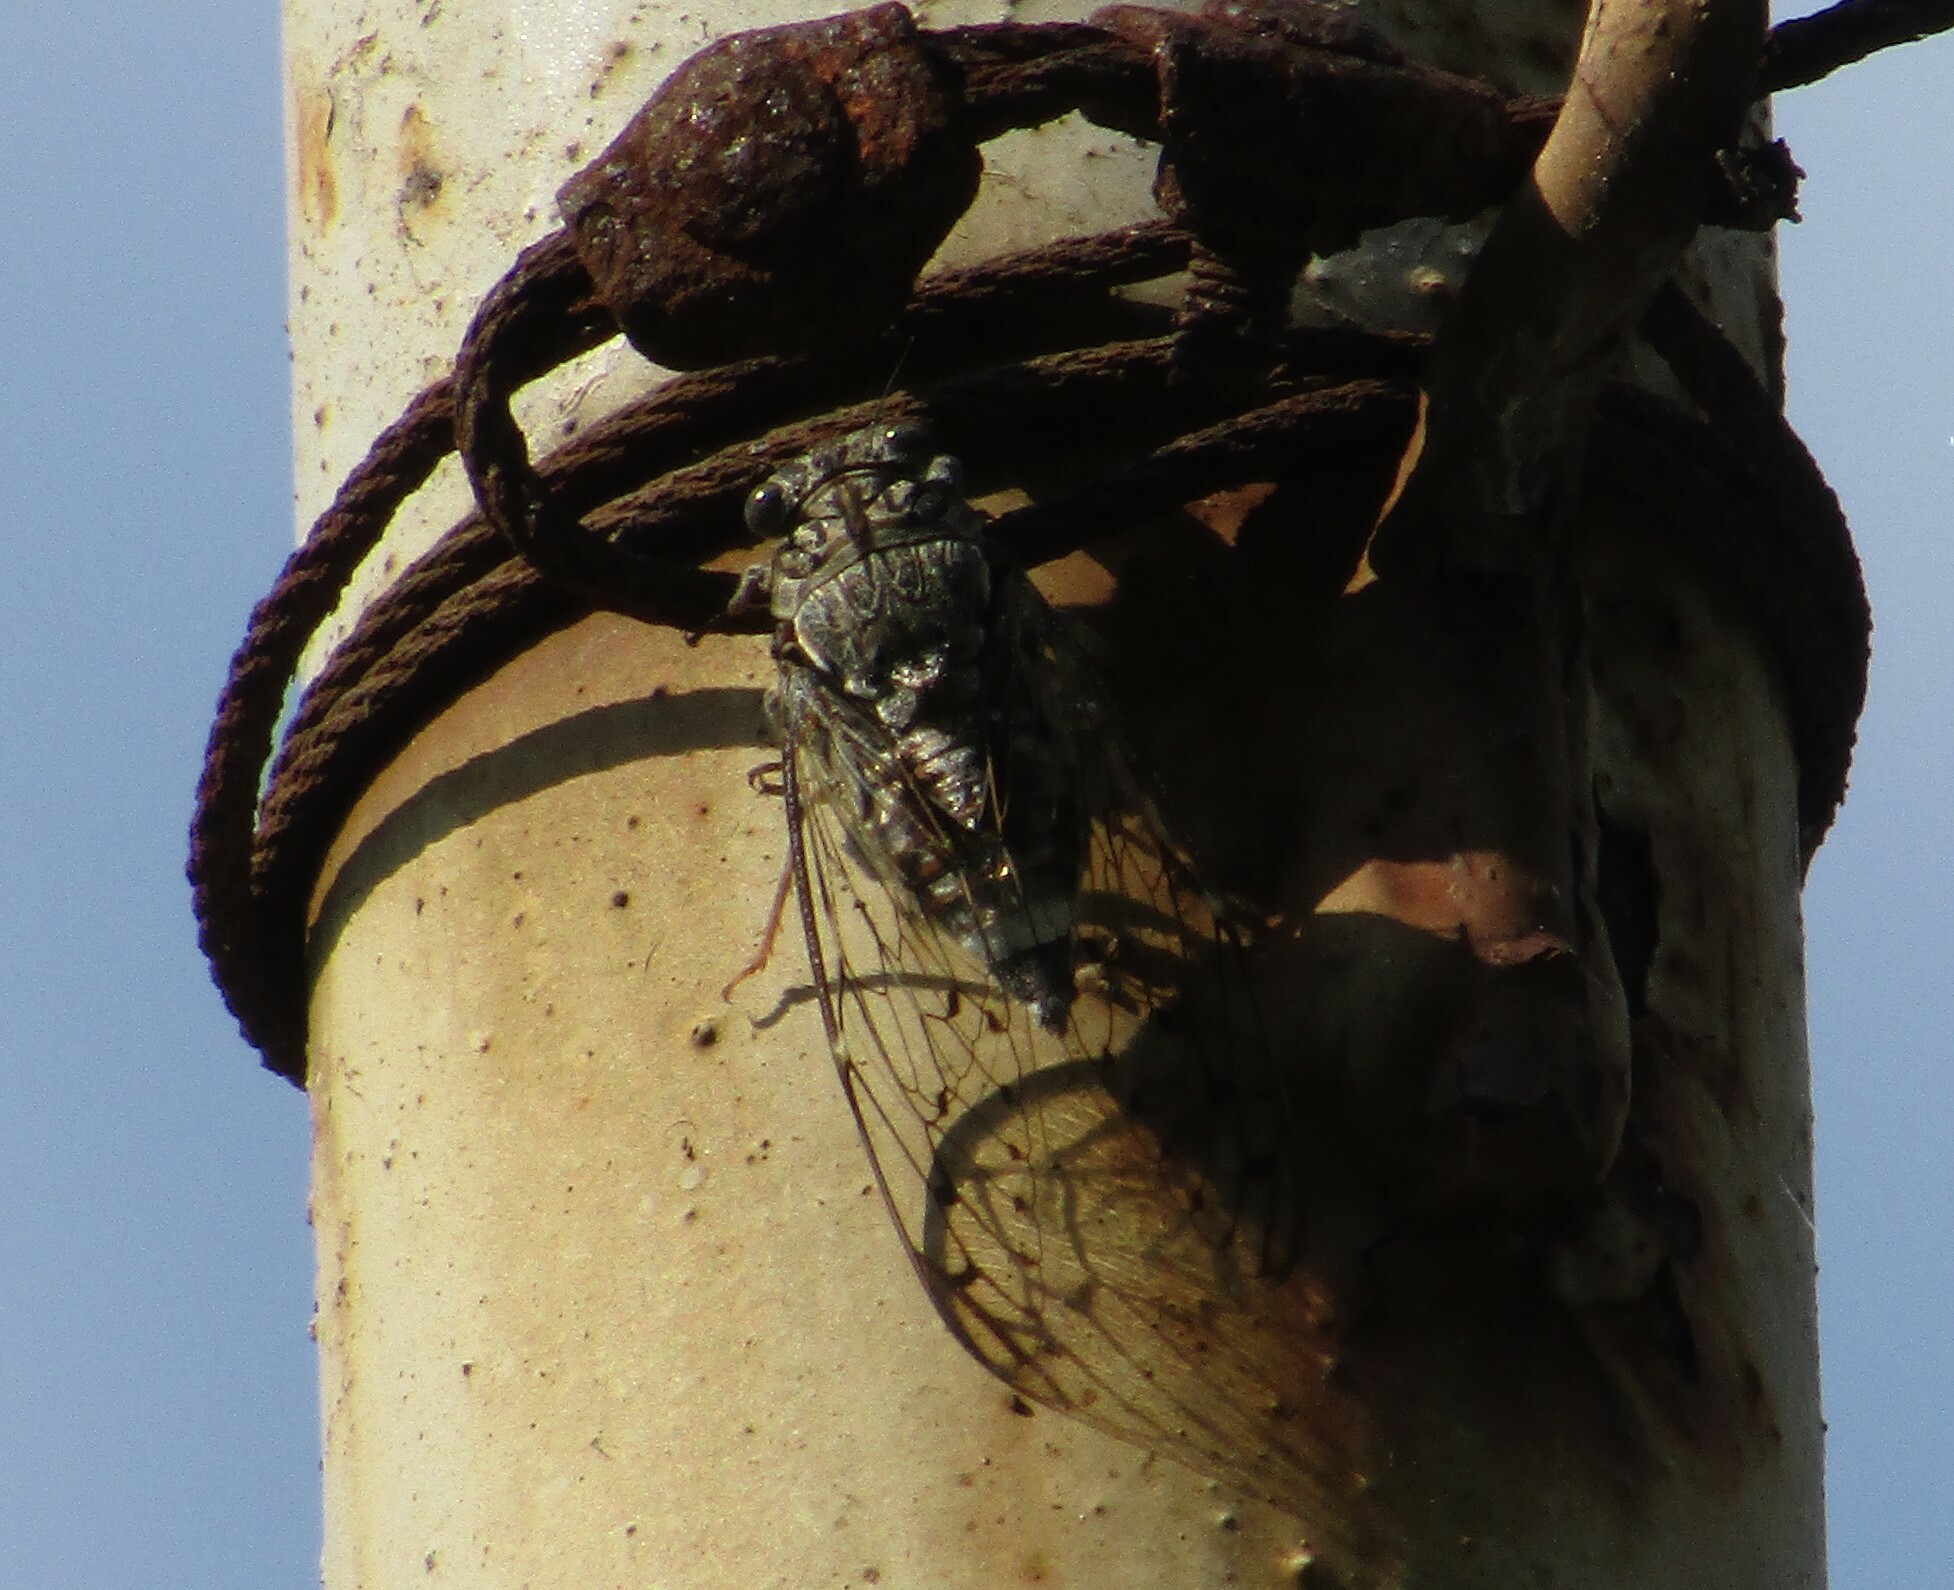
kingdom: Animalia
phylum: Arthropoda
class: Insecta
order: Hemiptera
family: Cicadidae
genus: Cicada
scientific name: Cicada orni
